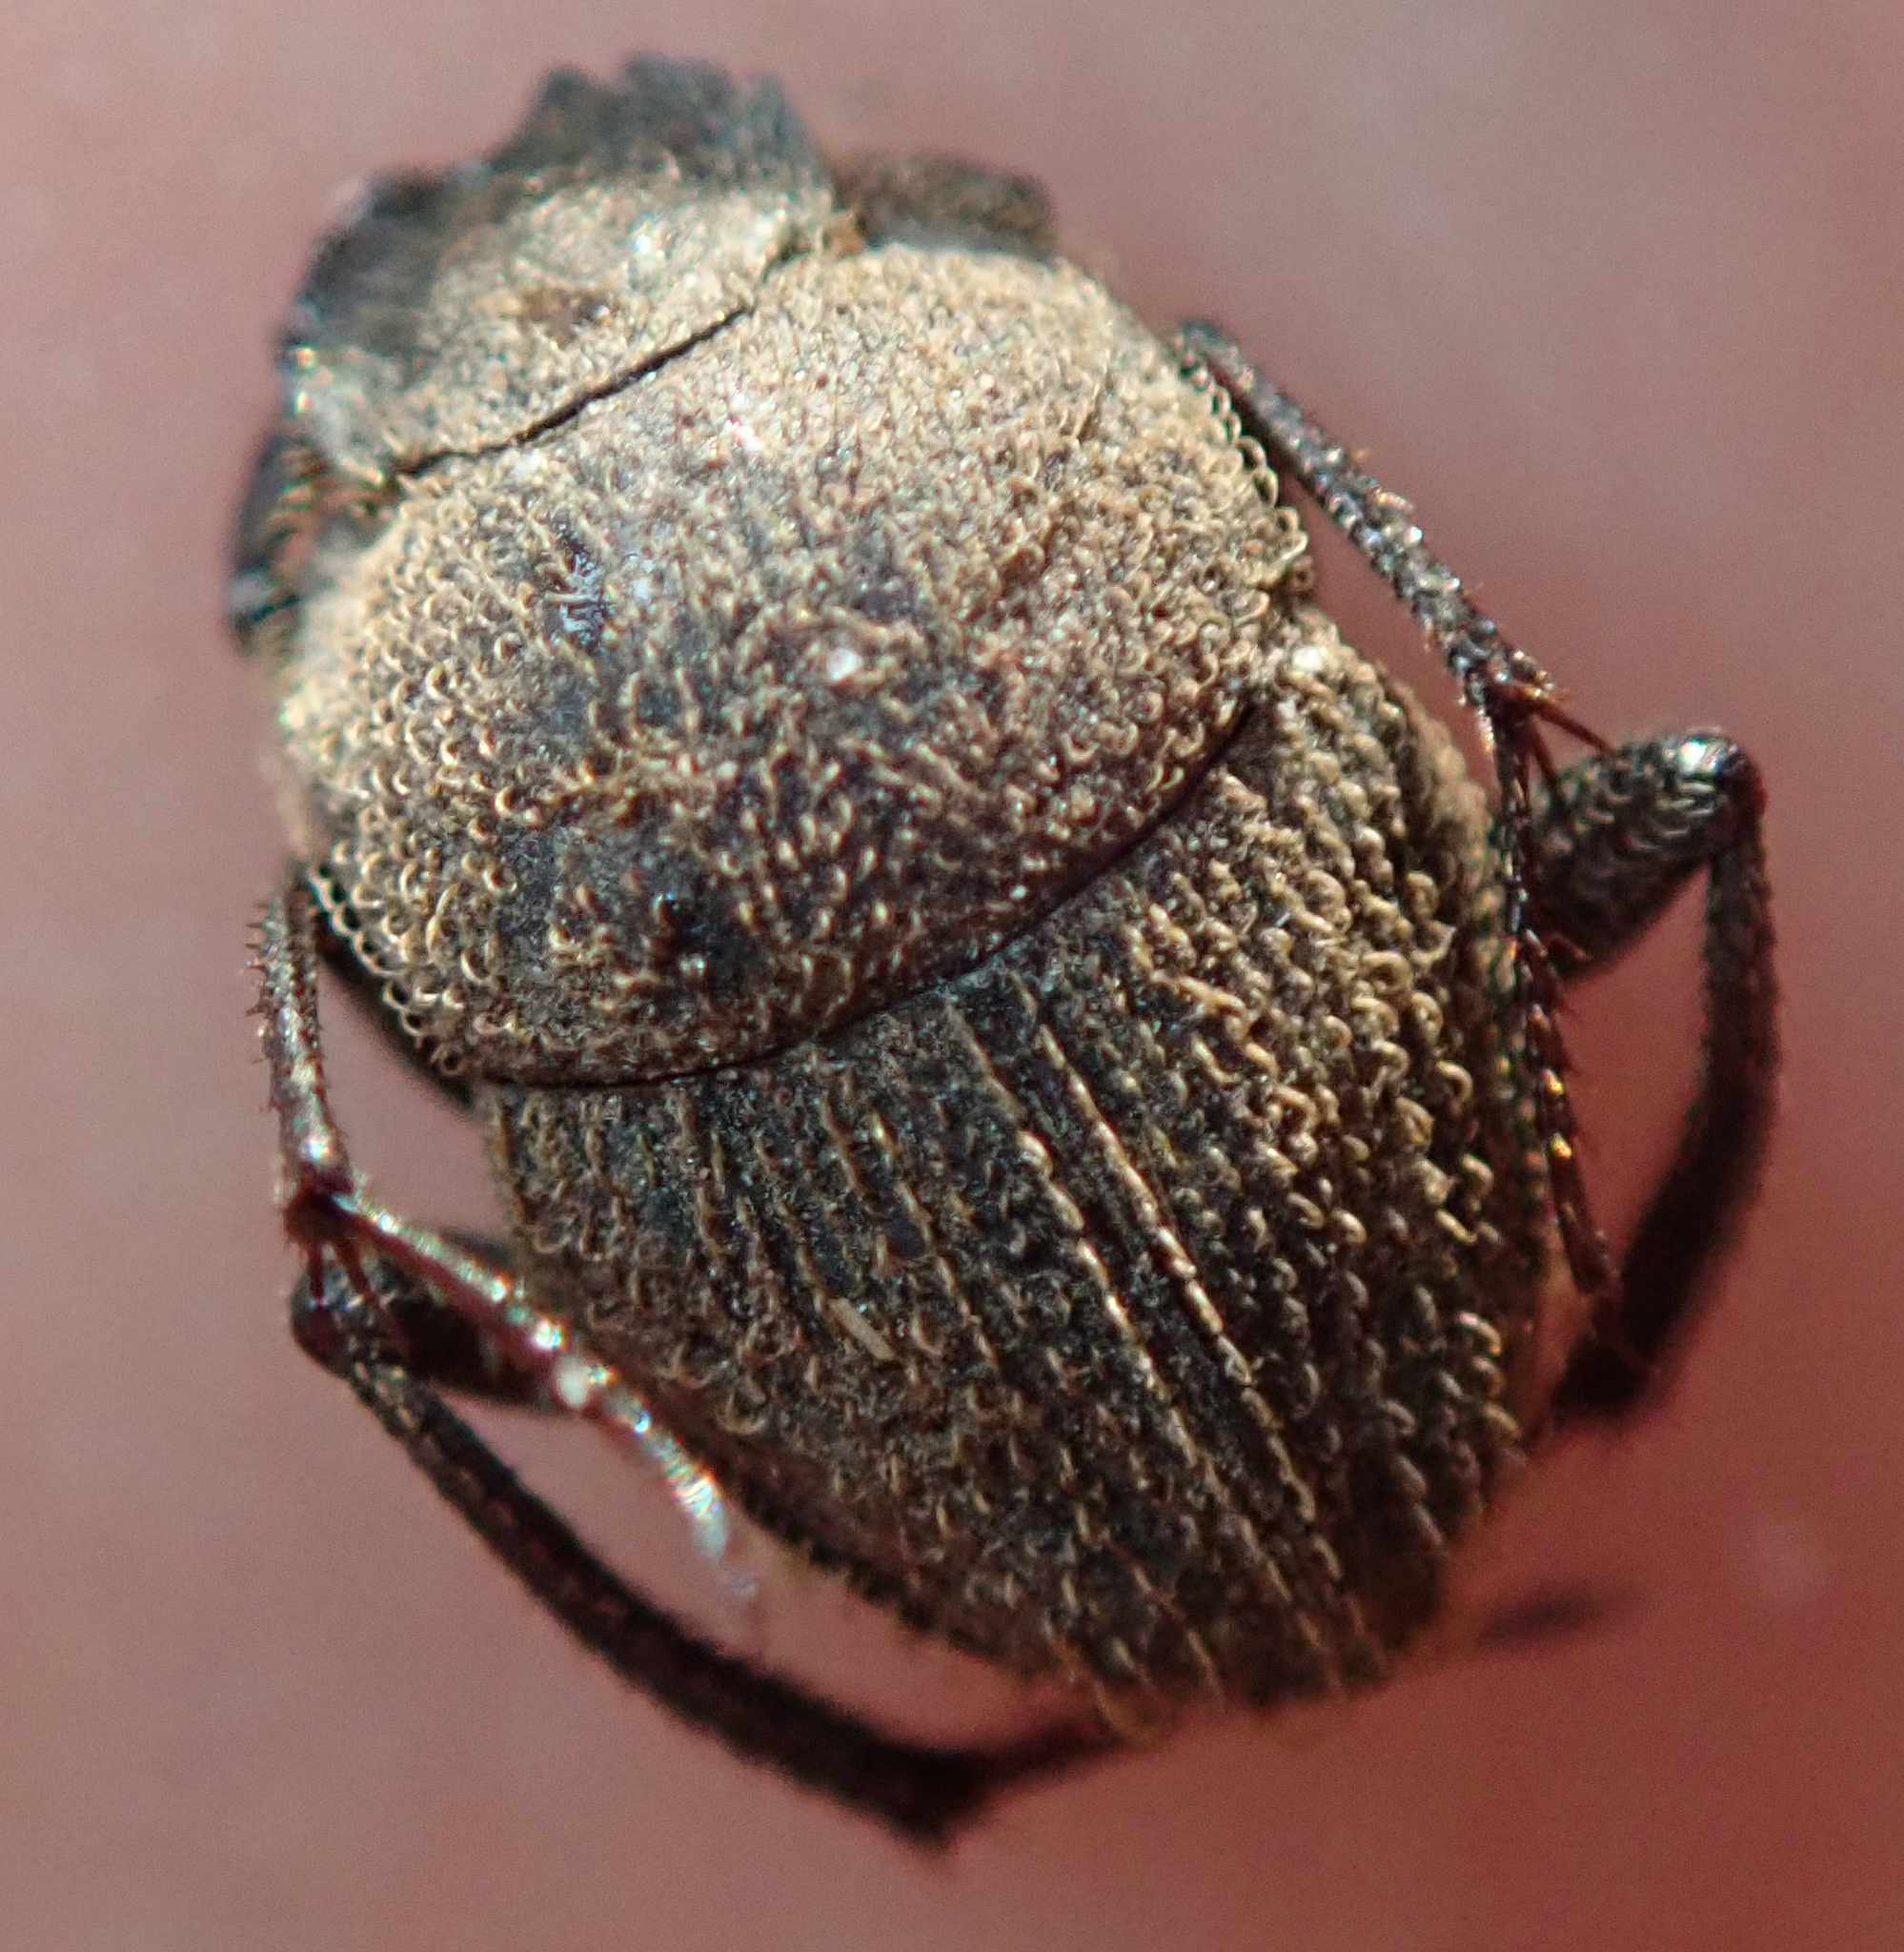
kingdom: Animalia
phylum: Arthropoda
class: Insecta
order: Coleoptera
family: Scarabaeidae
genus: Sisyphus
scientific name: Sisyphus goryi
